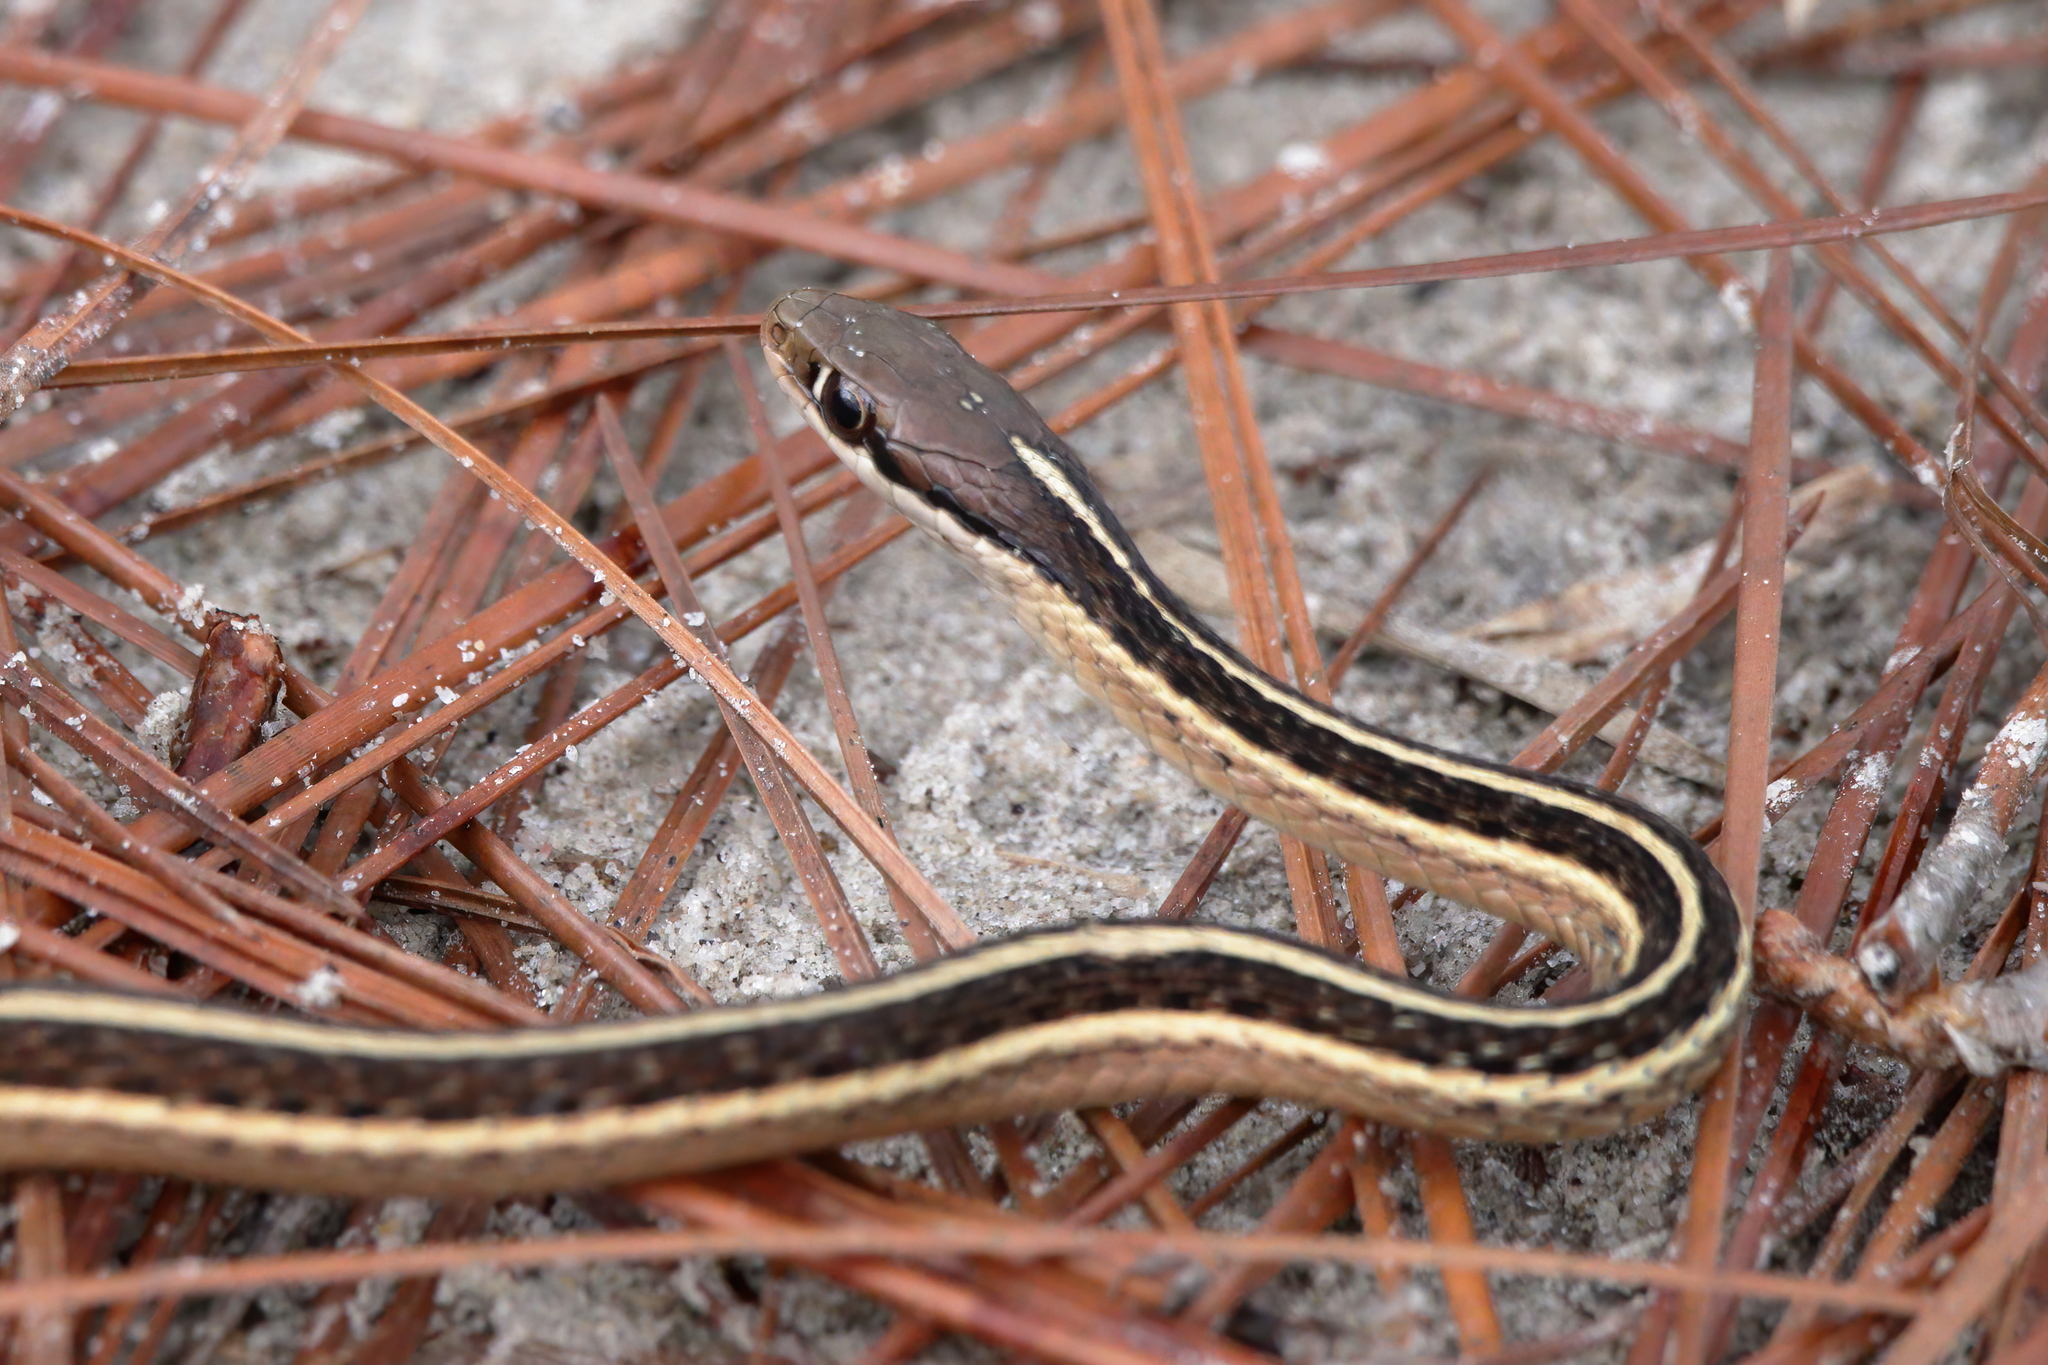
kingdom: Animalia
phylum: Chordata
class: Squamata
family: Colubridae
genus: Thamnophis
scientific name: Thamnophis saurita
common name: Eastern ribbonsnake
